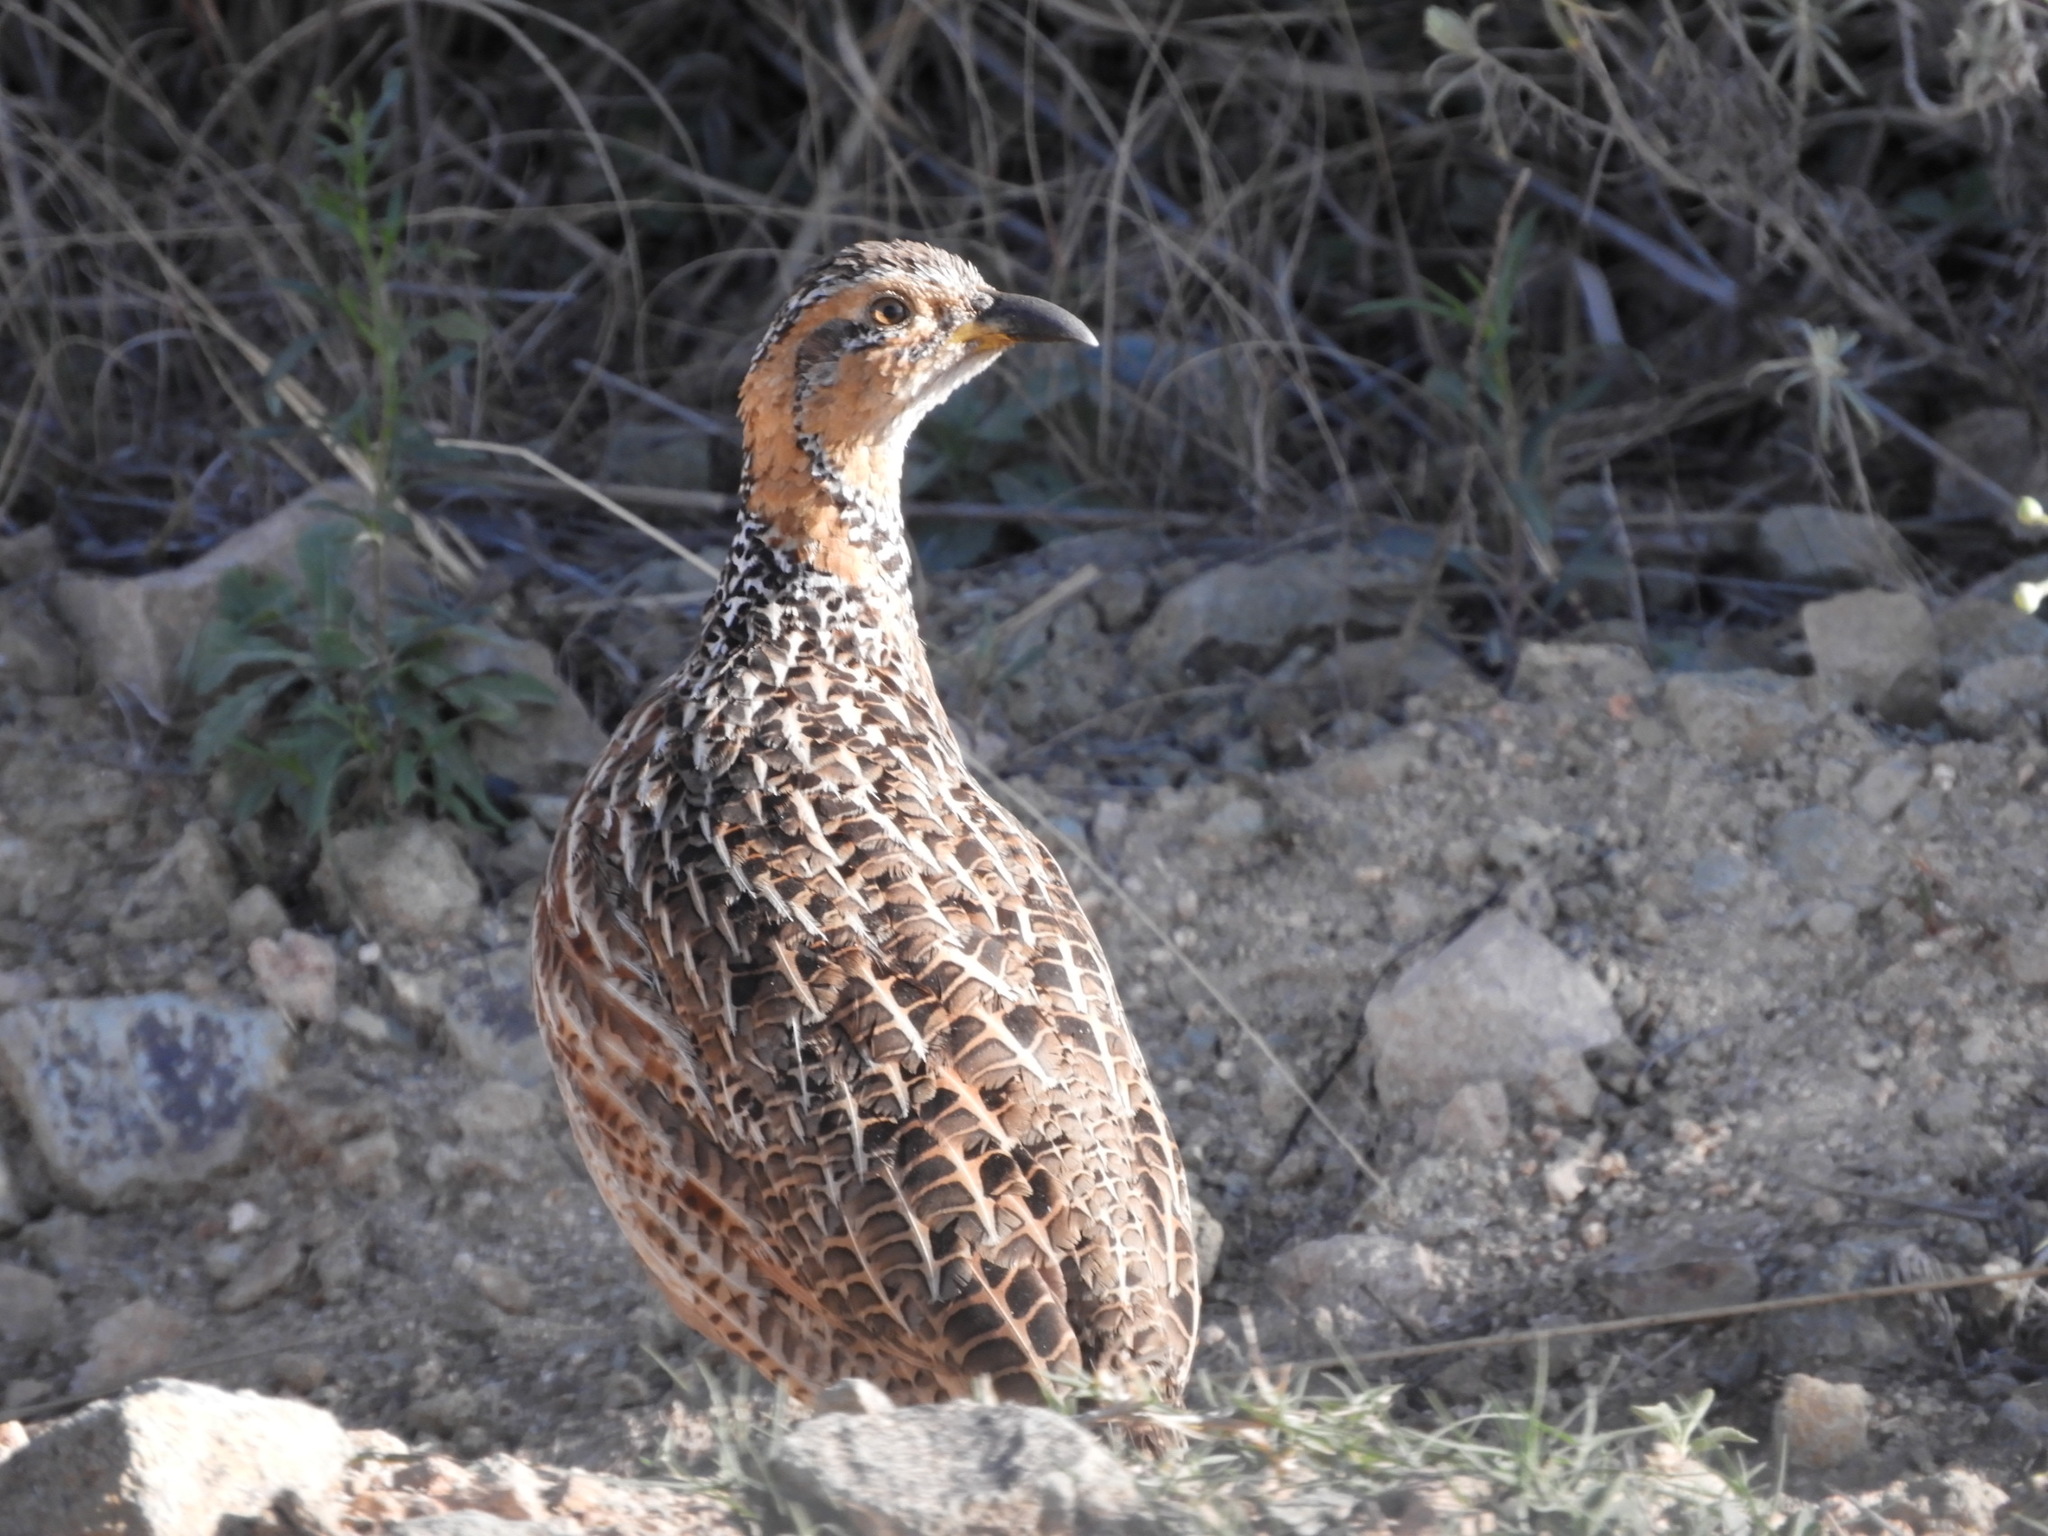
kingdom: Animalia
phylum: Chordata
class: Aves
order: Galliformes
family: Phasianidae
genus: Scleroptila
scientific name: Scleroptila levaillantii
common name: Red-winged francolin
